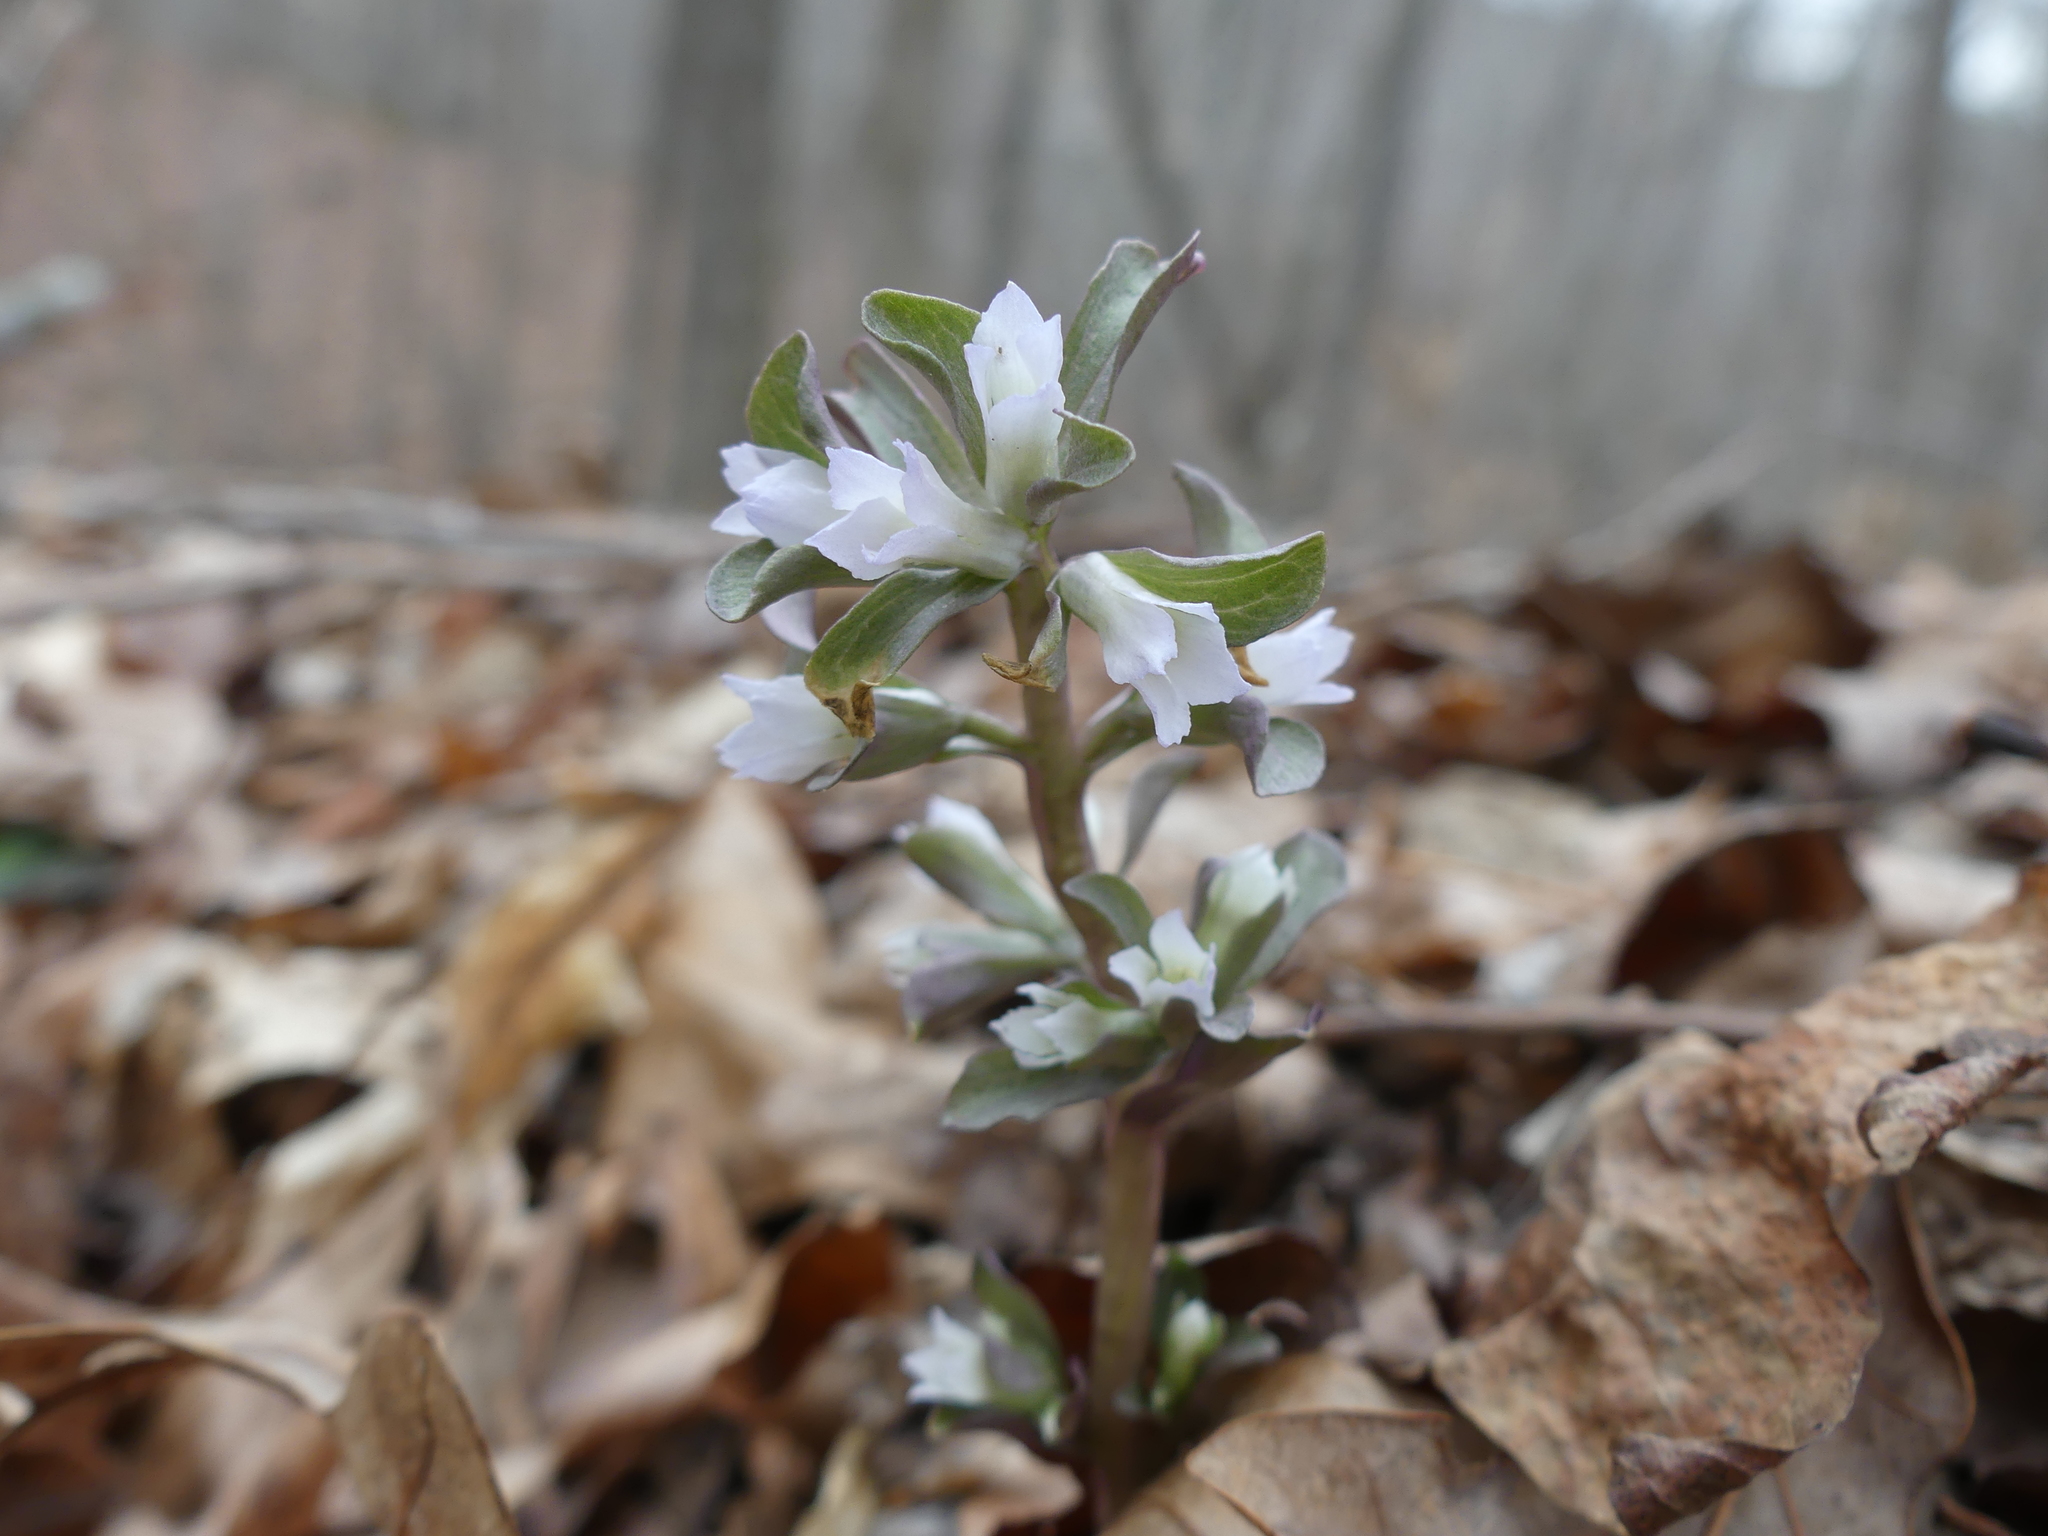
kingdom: Plantae
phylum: Tracheophyta
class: Magnoliopsida
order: Gentianales
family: Gentianaceae
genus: Obolaria
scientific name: Obolaria virginica
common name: Pennywort
